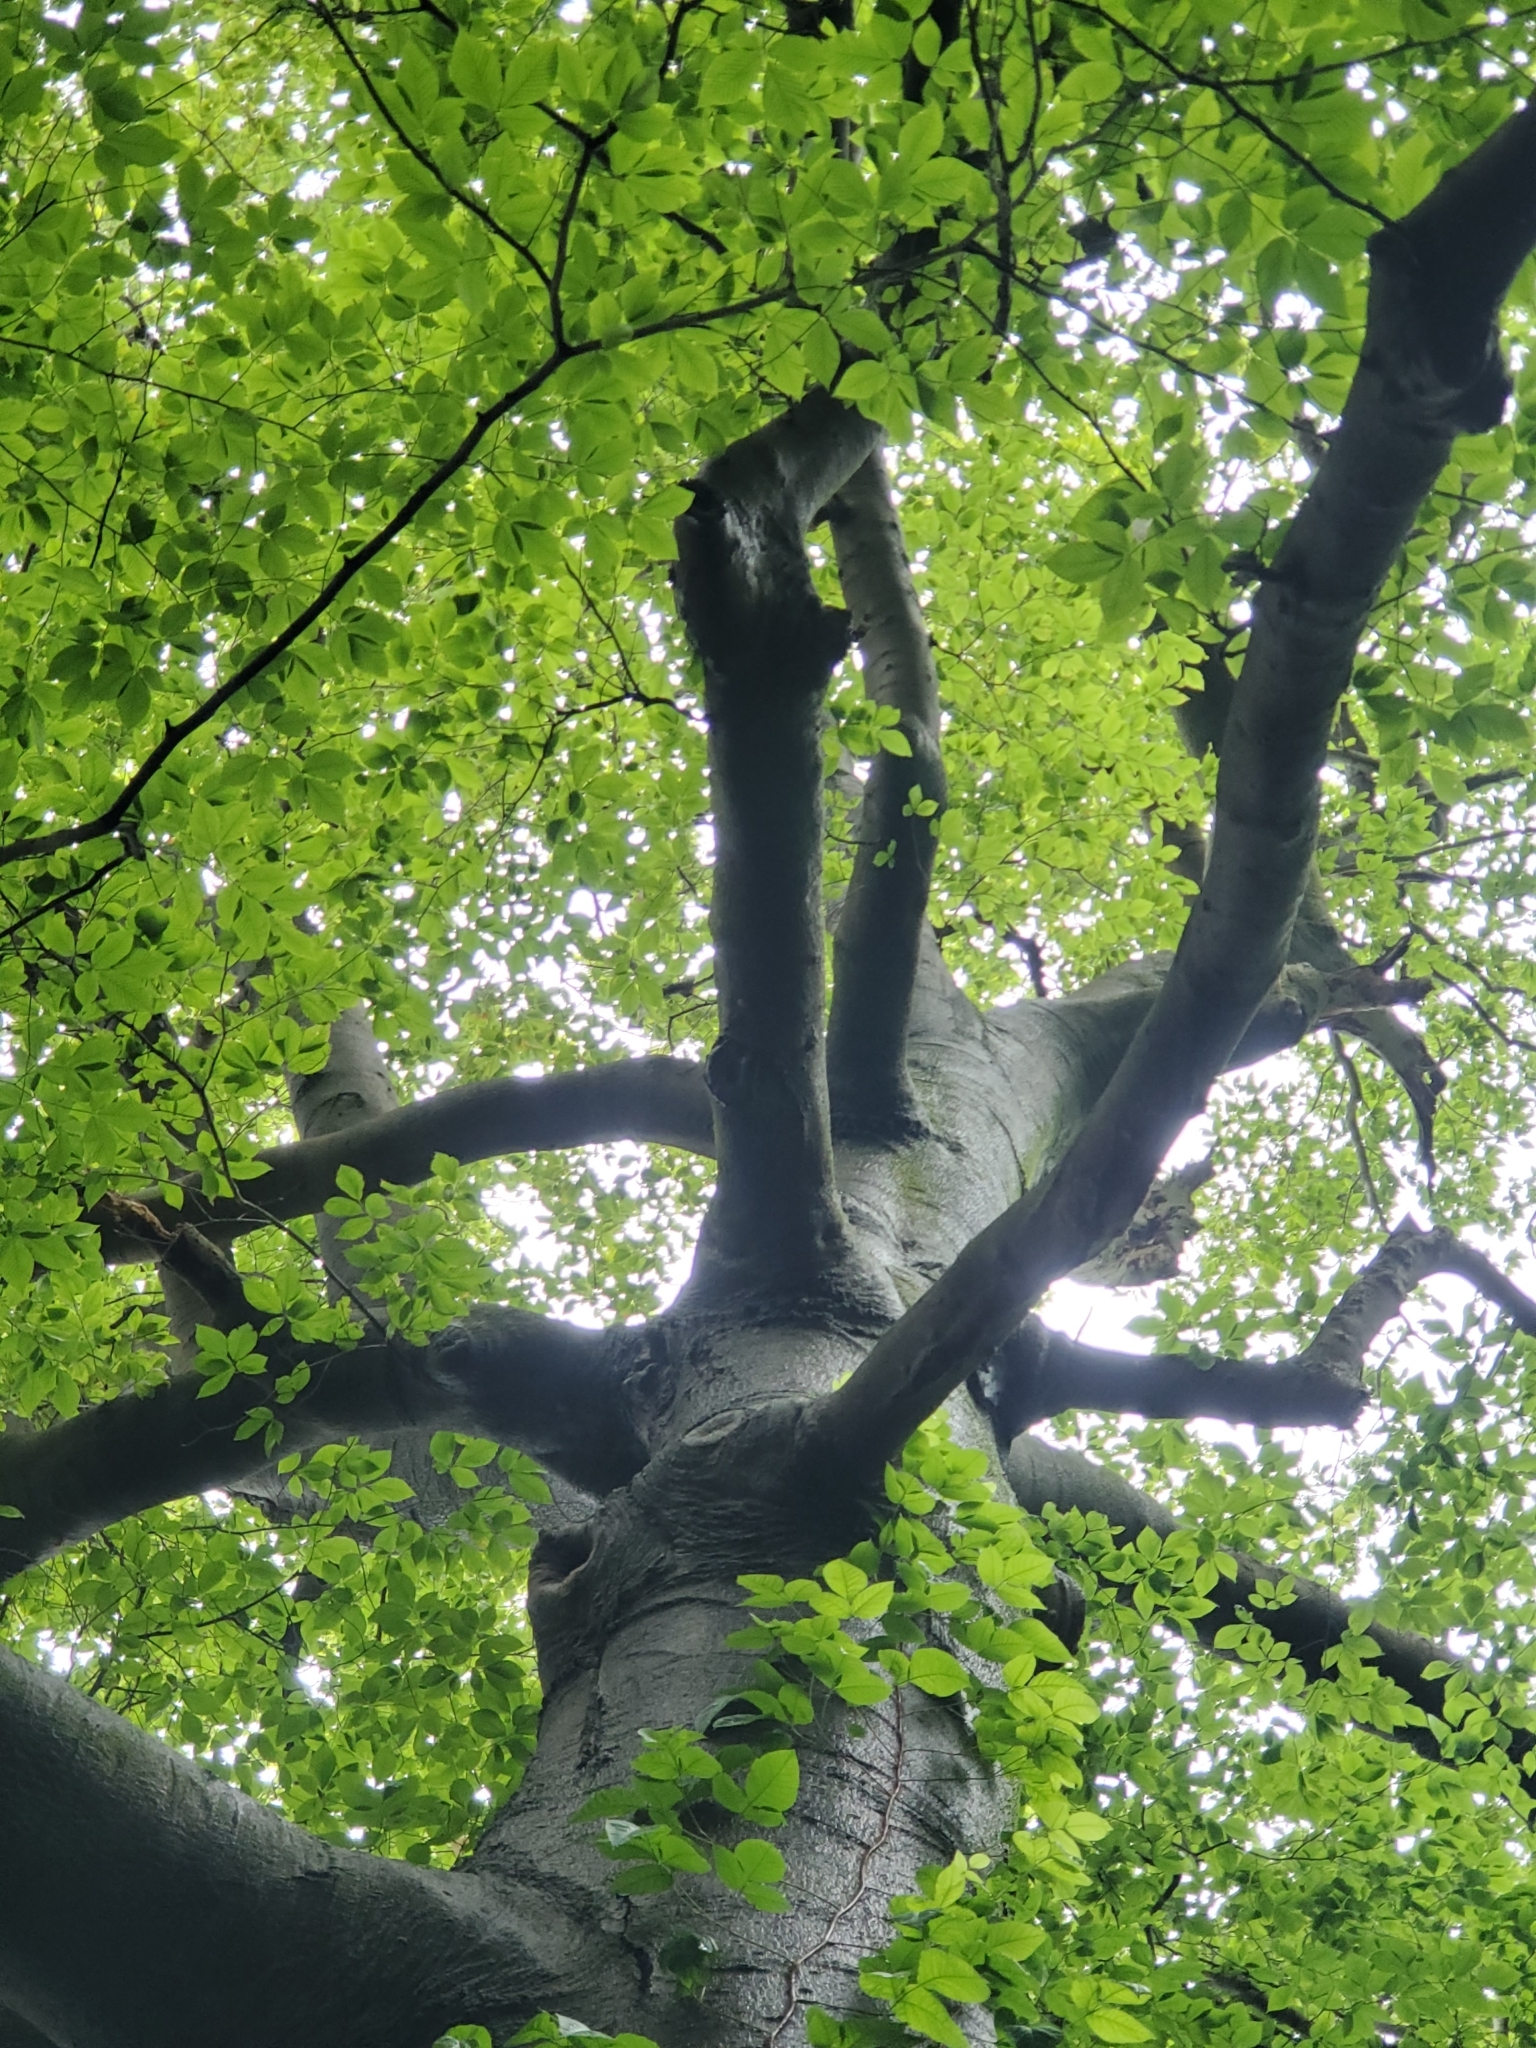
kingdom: Plantae
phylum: Tracheophyta
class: Magnoliopsida
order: Fagales
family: Fagaceae
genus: Fagus
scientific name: Fagus grandifolia
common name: American beech
